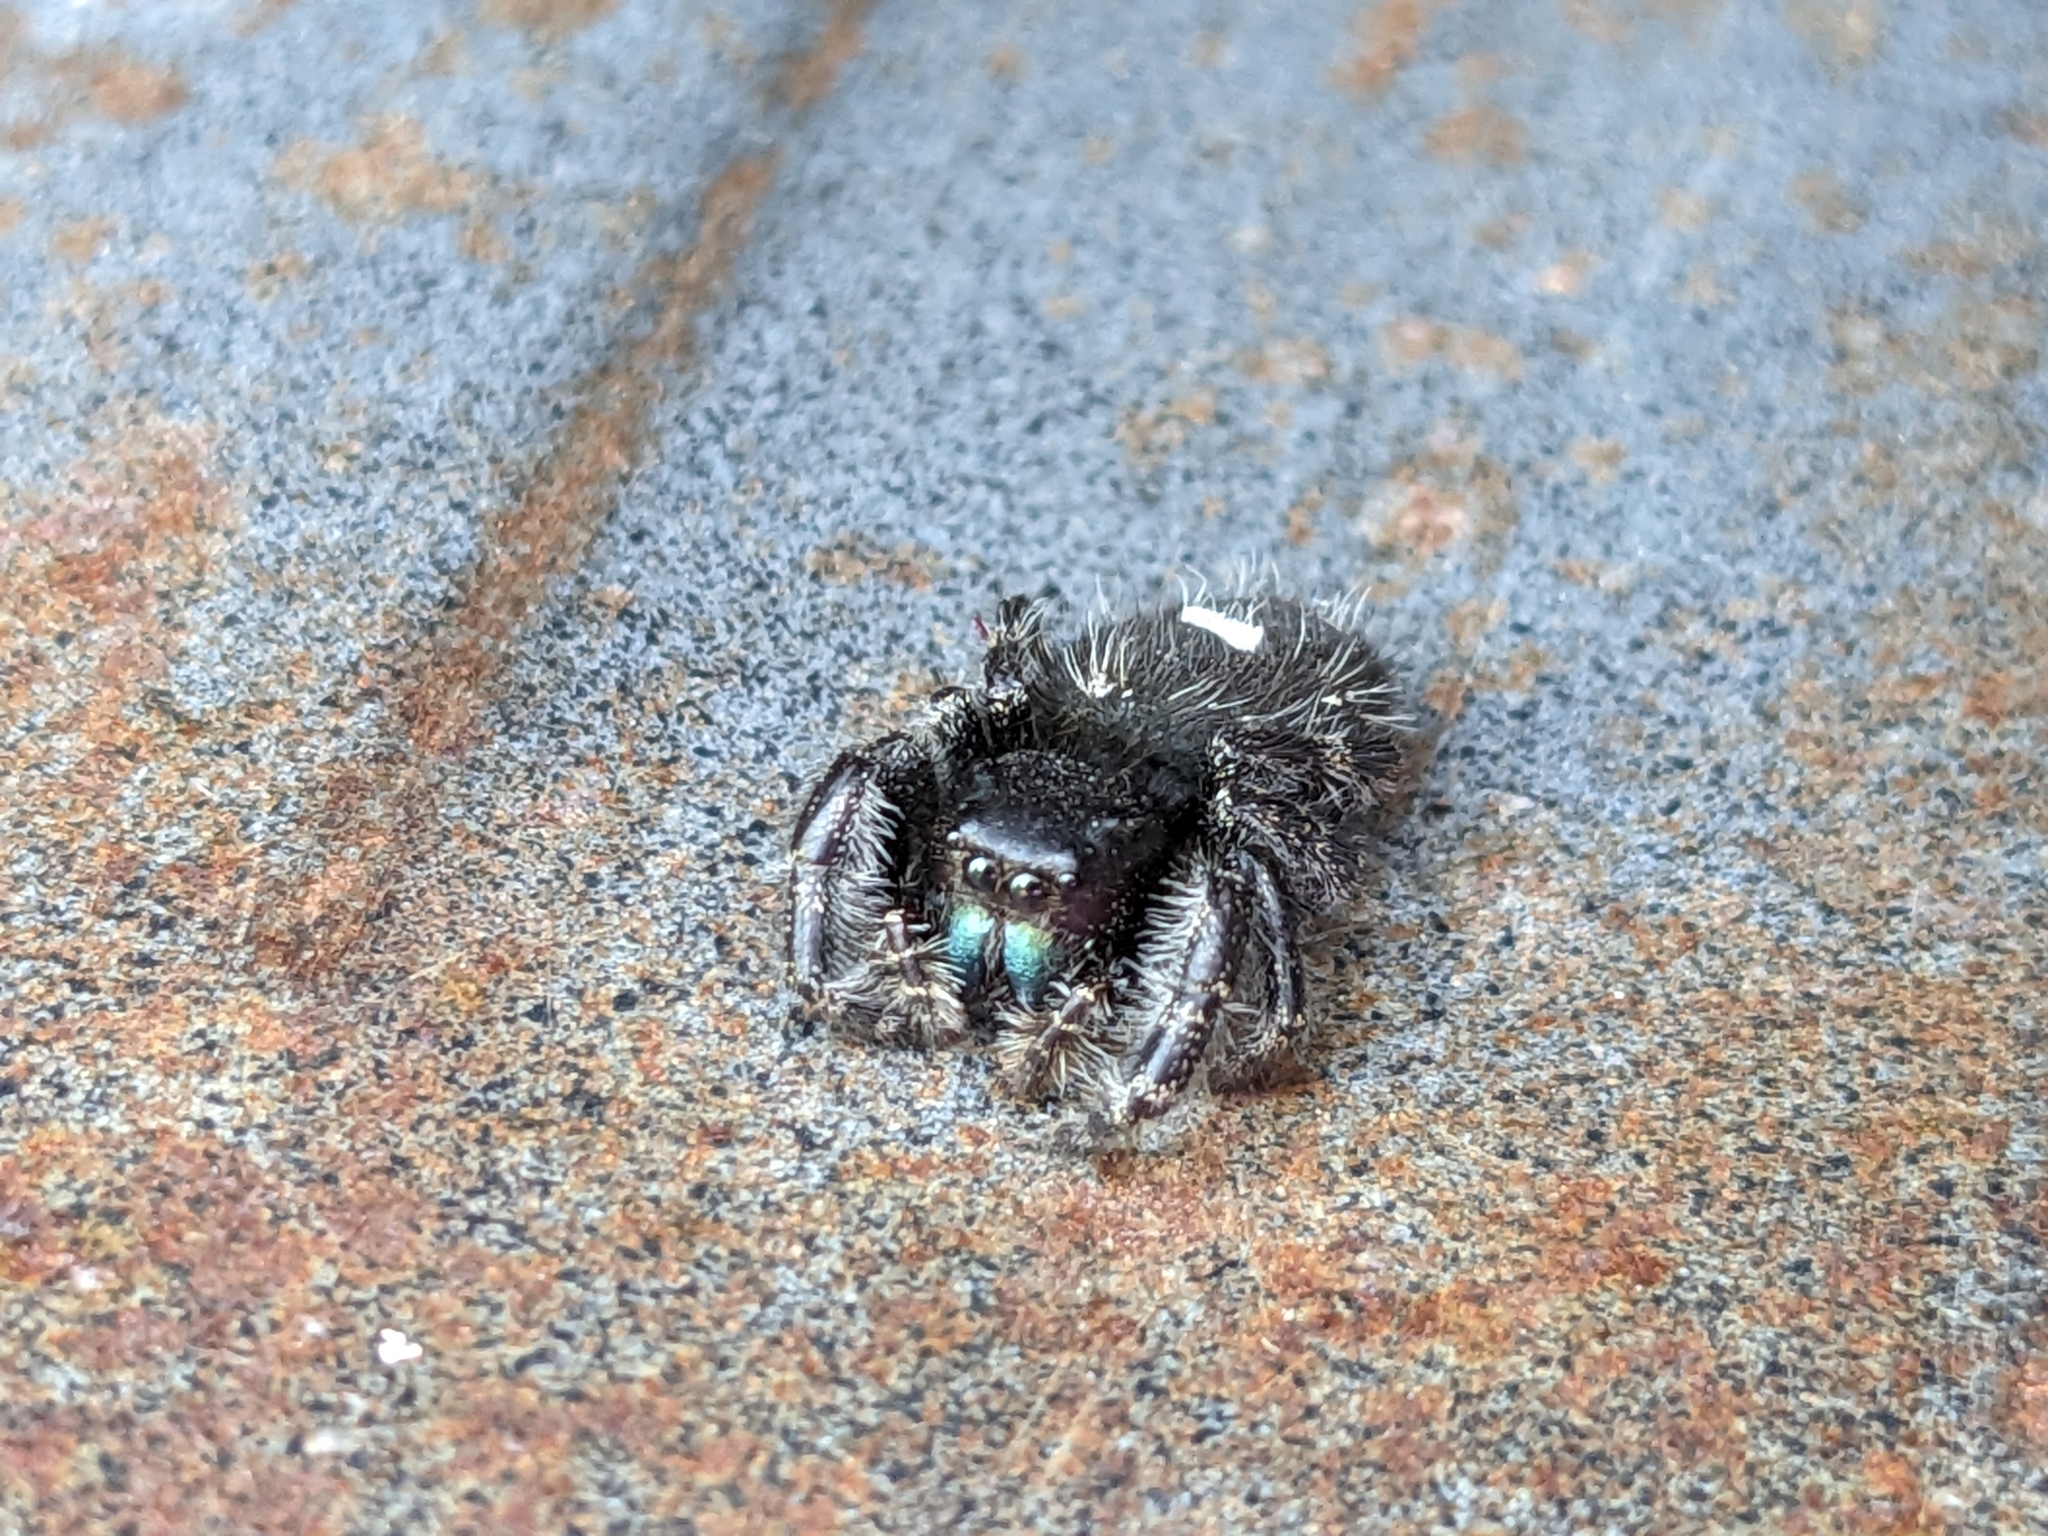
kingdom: Animalia
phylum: Arthropoda
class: Arachnida
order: Araneae
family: Salticidae
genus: Phidippus
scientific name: Phidippus audax
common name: Bold jumper
